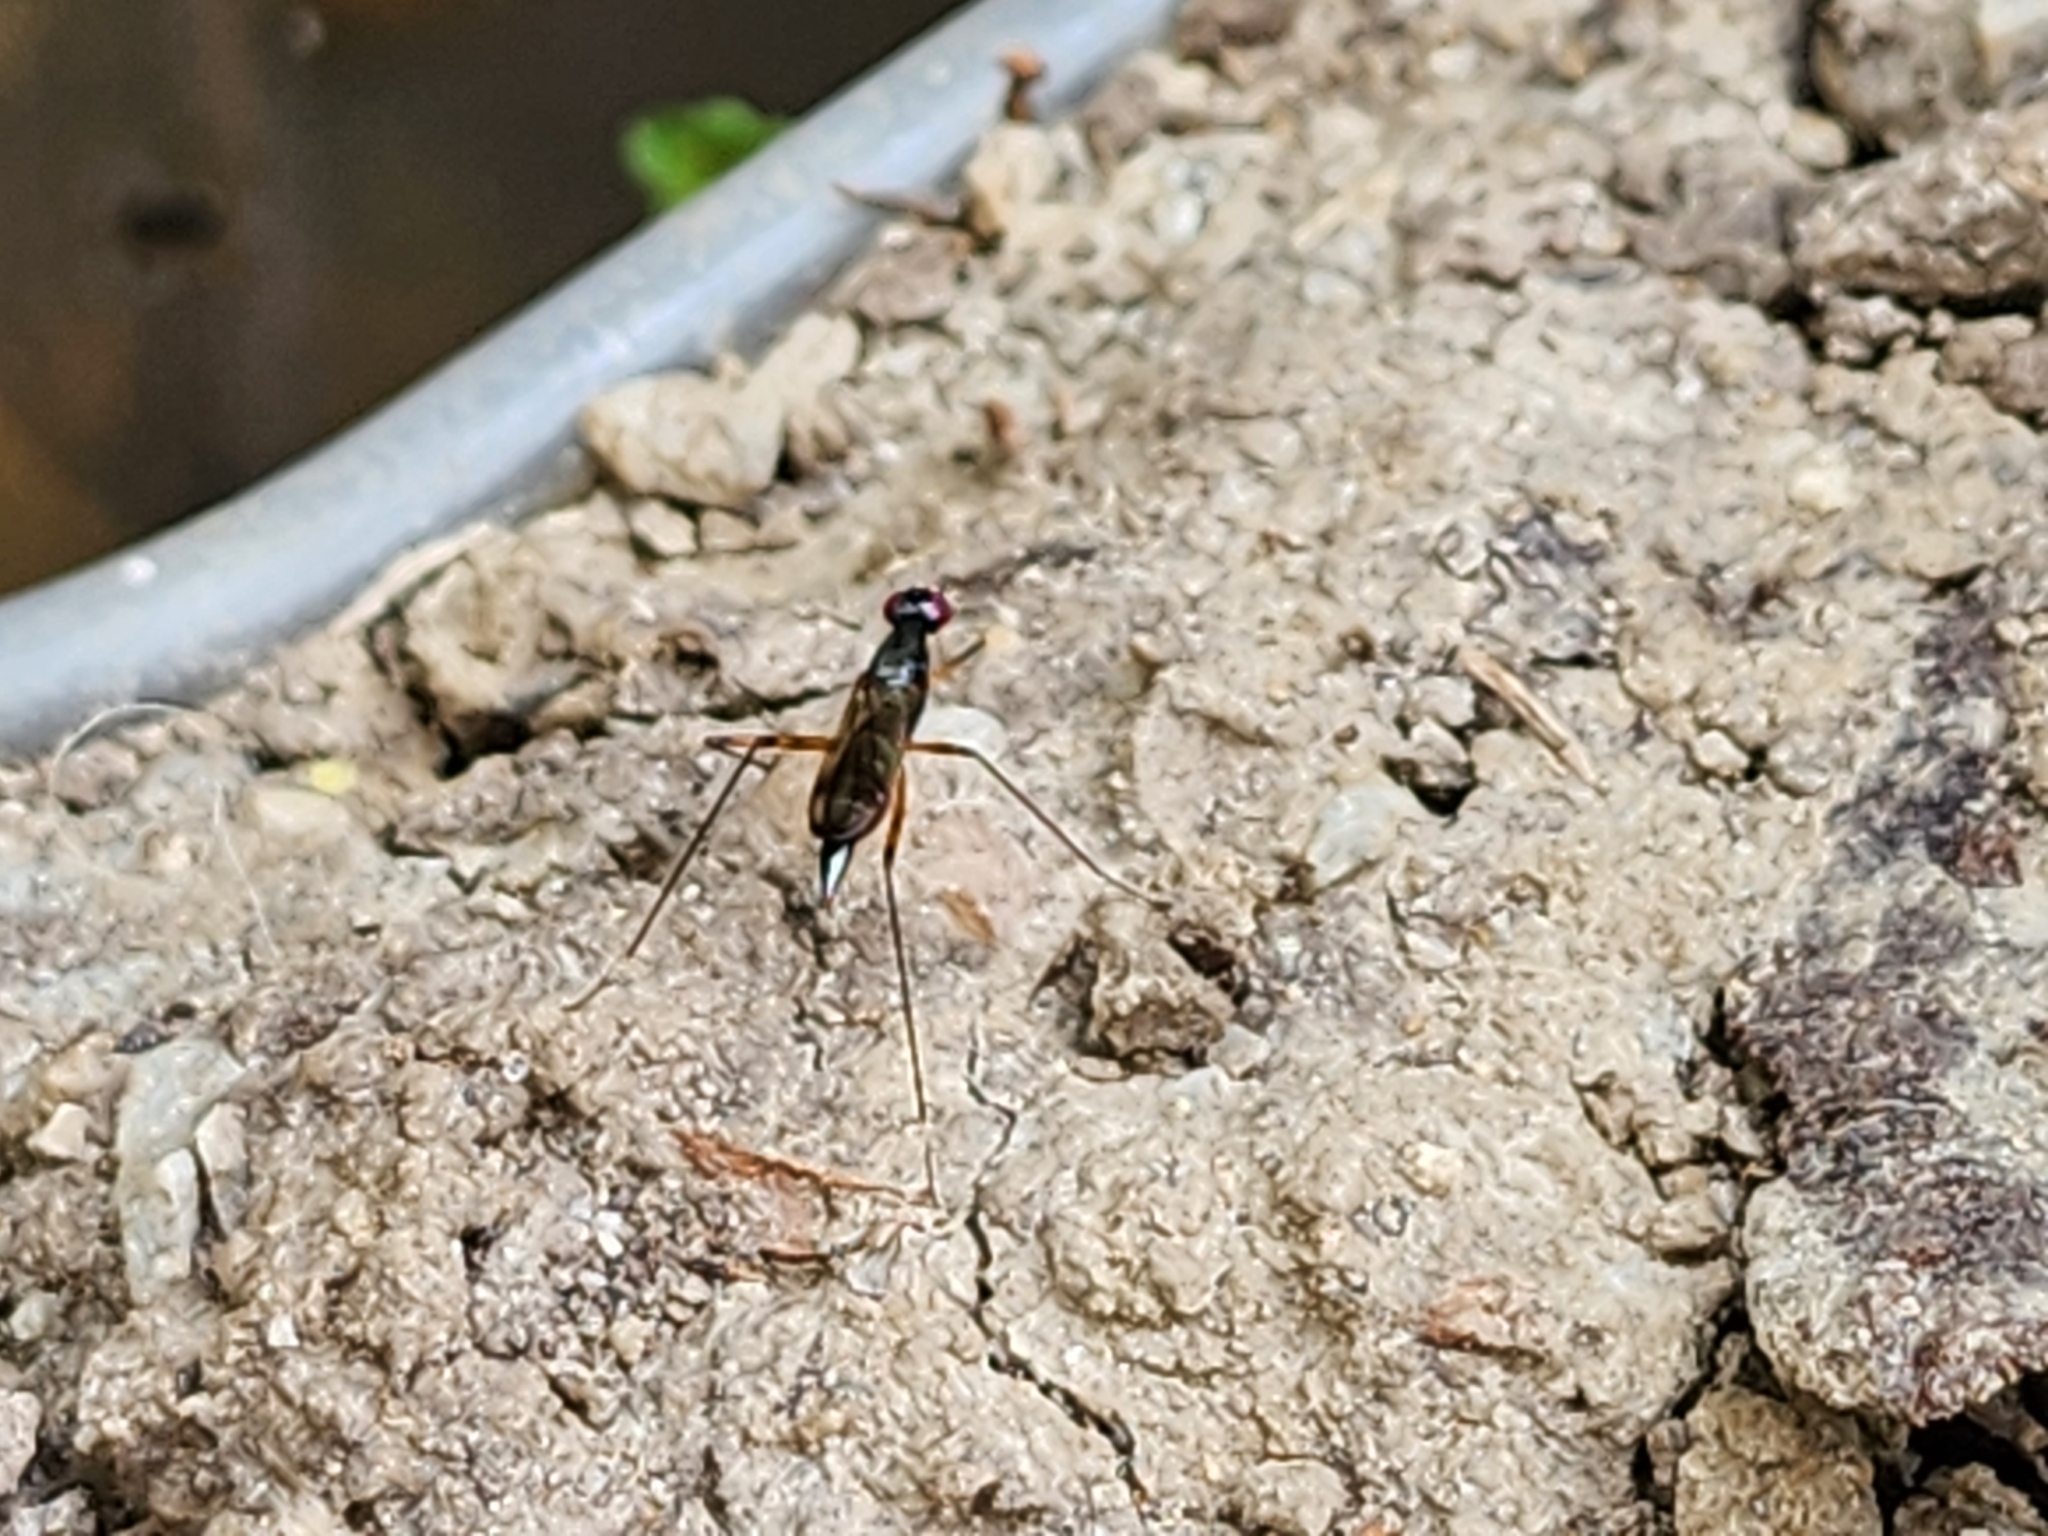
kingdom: Animalia
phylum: Arthropoda
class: Insecta
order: Diptera
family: Micropezidae
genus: Rainieria
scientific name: Rainieria antennaepes
